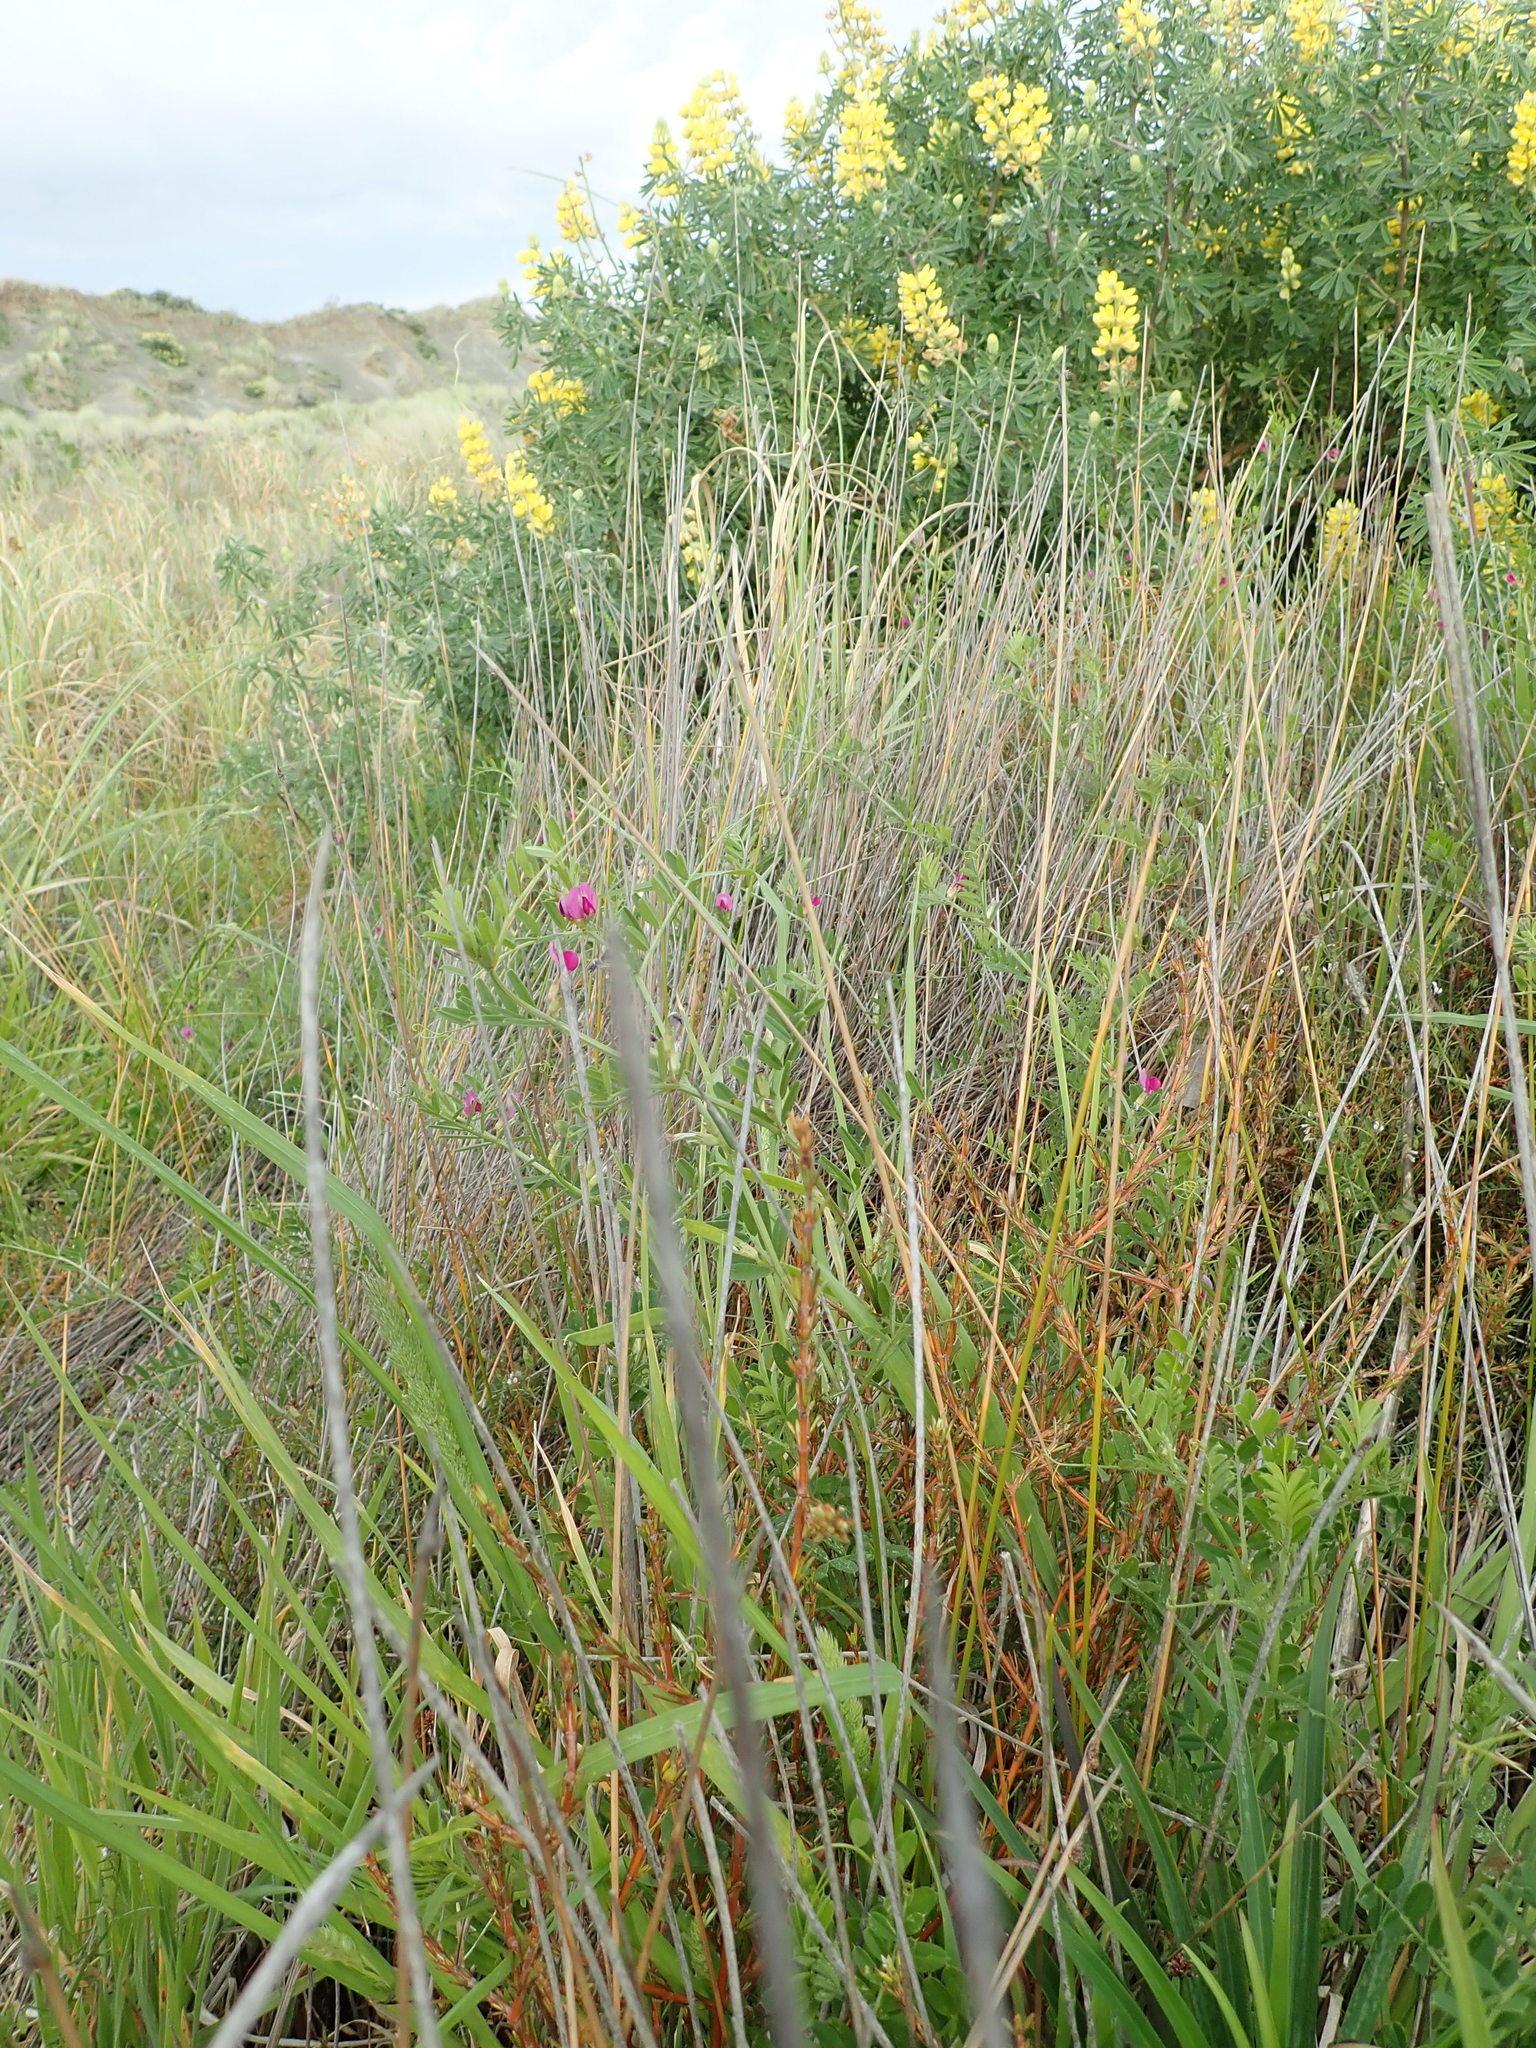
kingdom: Plantae
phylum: Tracheophyta
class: Magnoliopsida
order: Fabales
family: Fabaceae
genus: Vicia
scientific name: Vicia sativa
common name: Garden vetch
